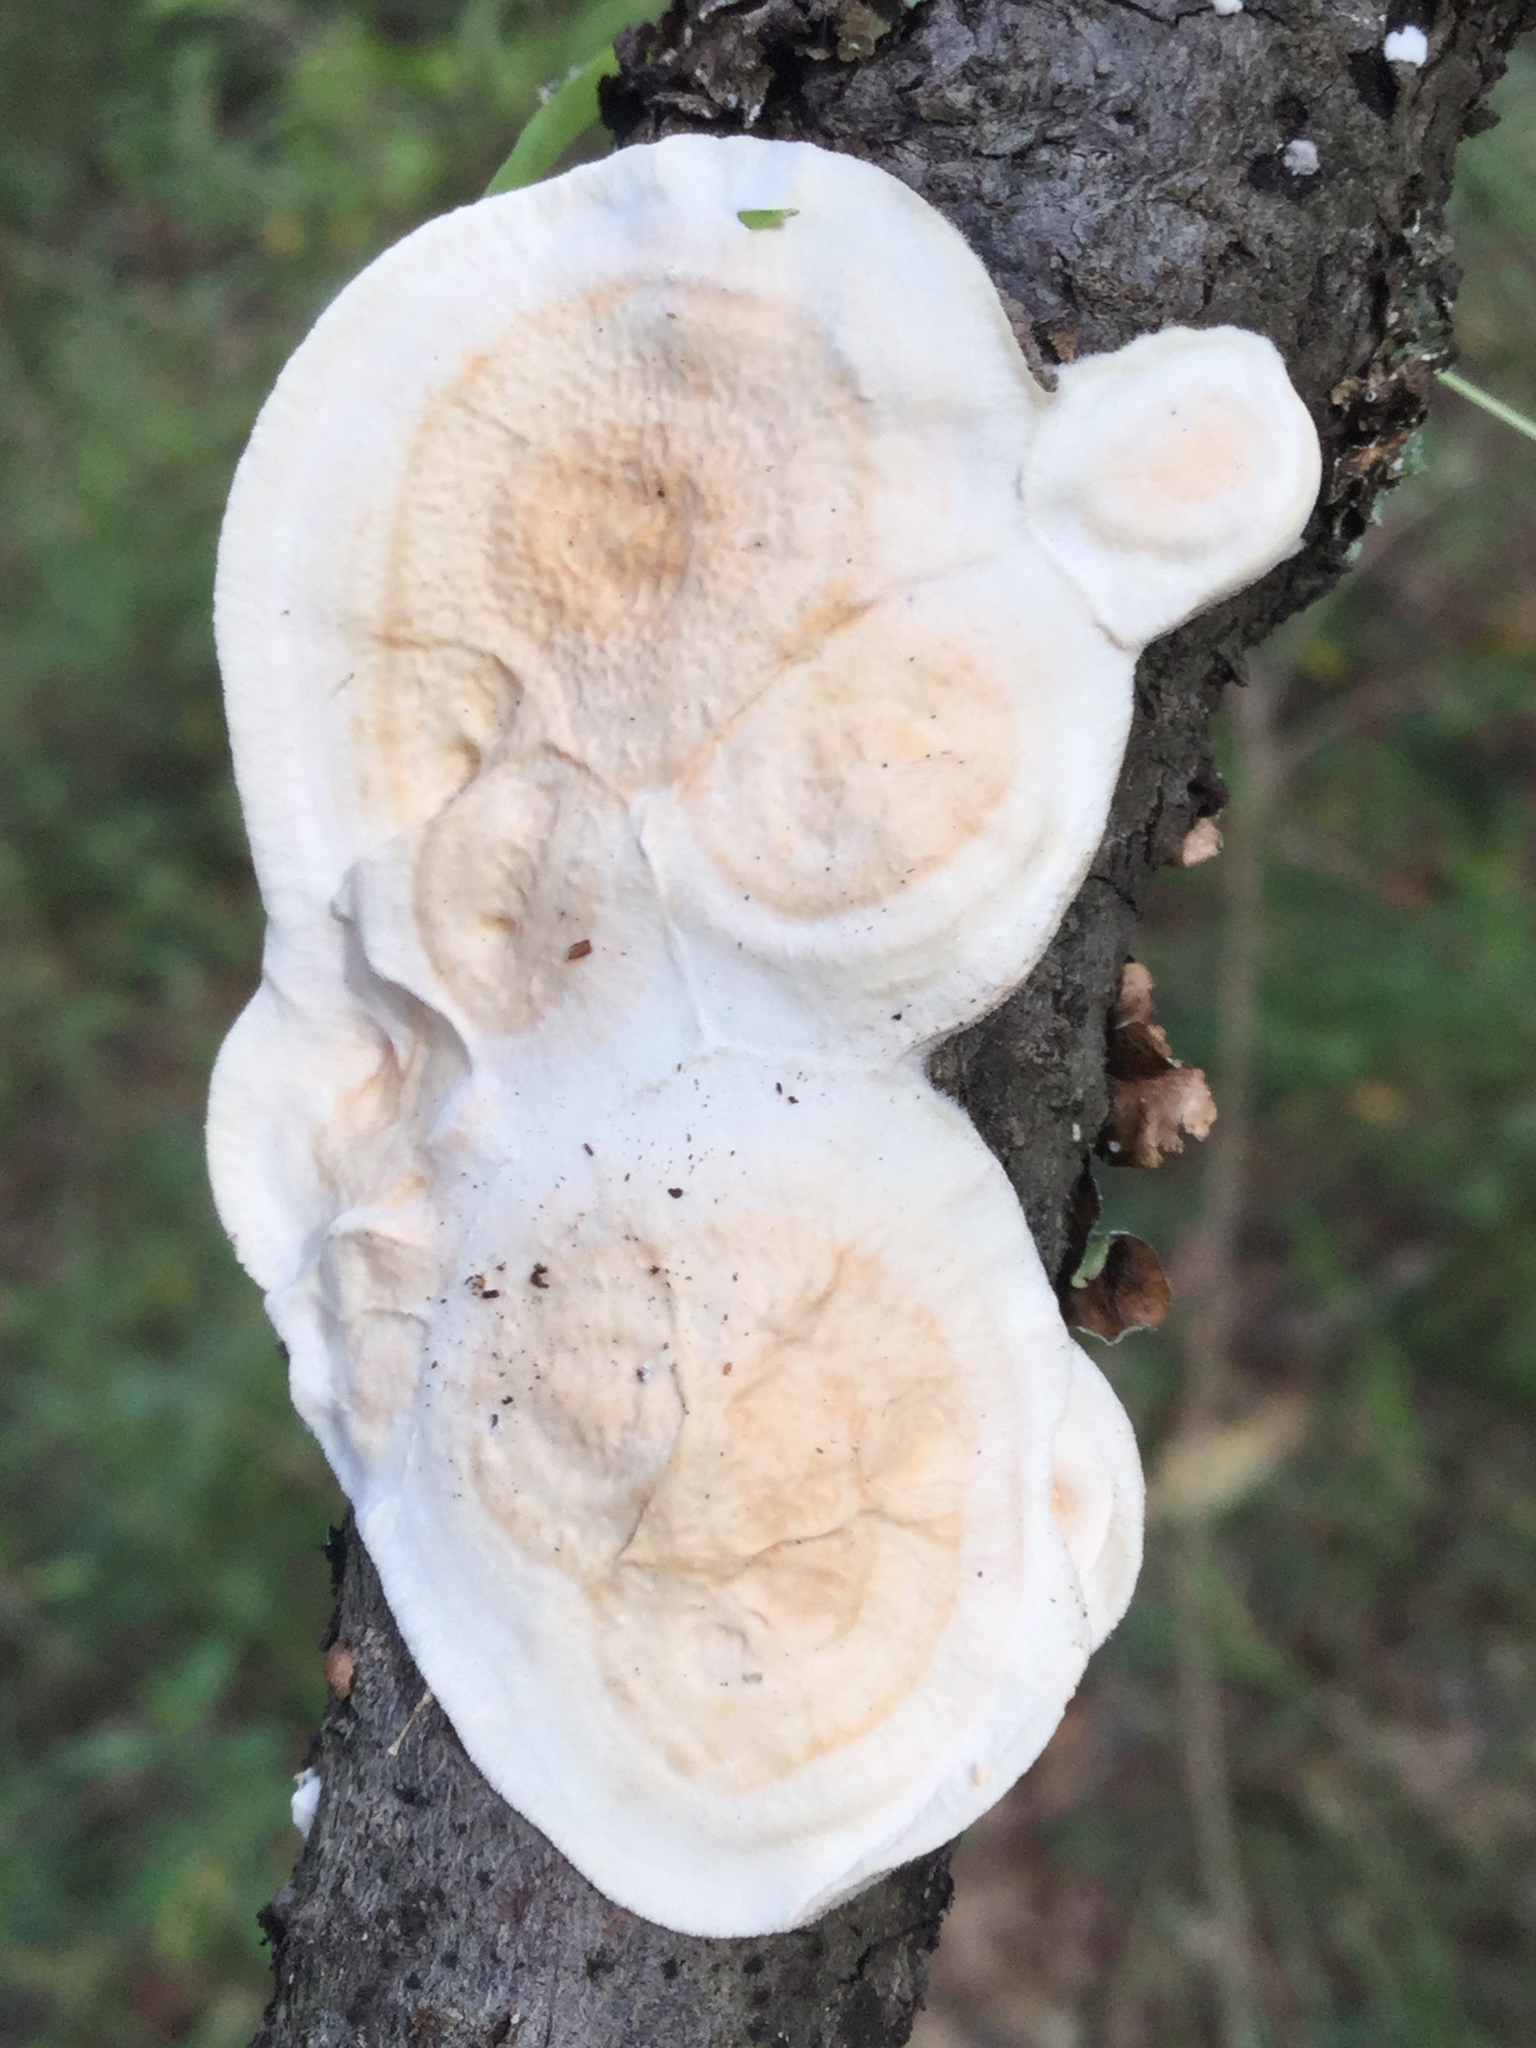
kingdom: Fungi
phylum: Basidiomycota
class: Agaricomycetes
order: Polyporales
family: Irpicaceae
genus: Byssomerulius
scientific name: Byssomerulius corium
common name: Netted crust
